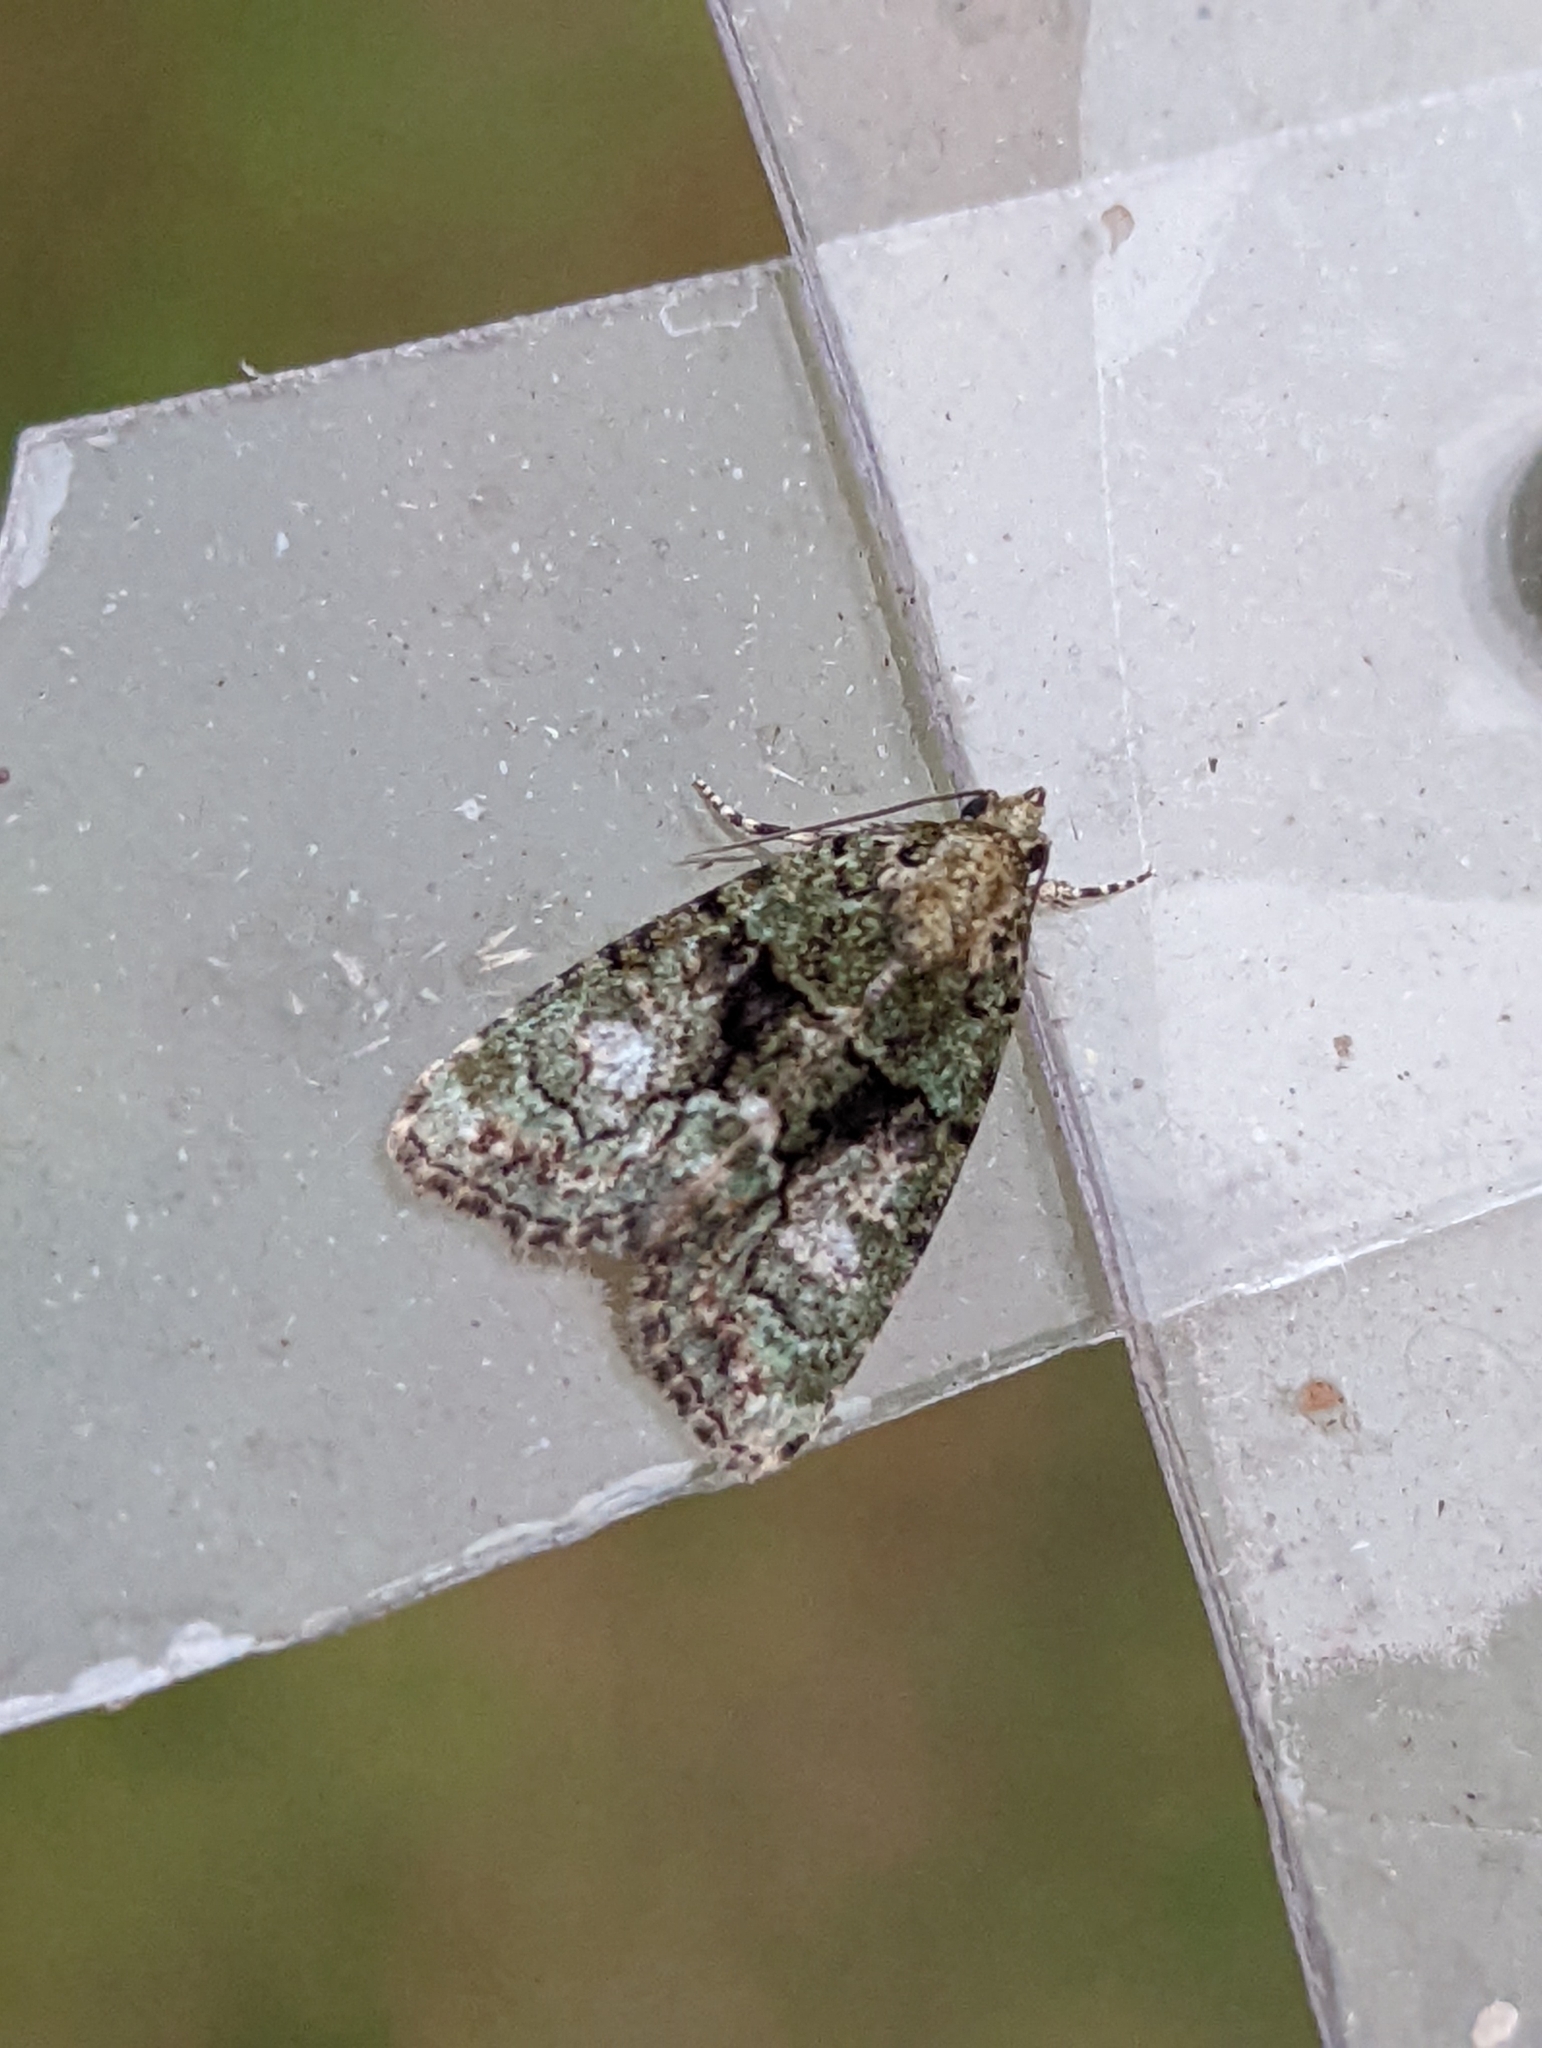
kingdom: Animalia
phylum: Arthropoda
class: Insecta
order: Lepidoptera
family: Noctuidae
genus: Cryphia
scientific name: Cryphia algae
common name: Tree-lichen beauty
